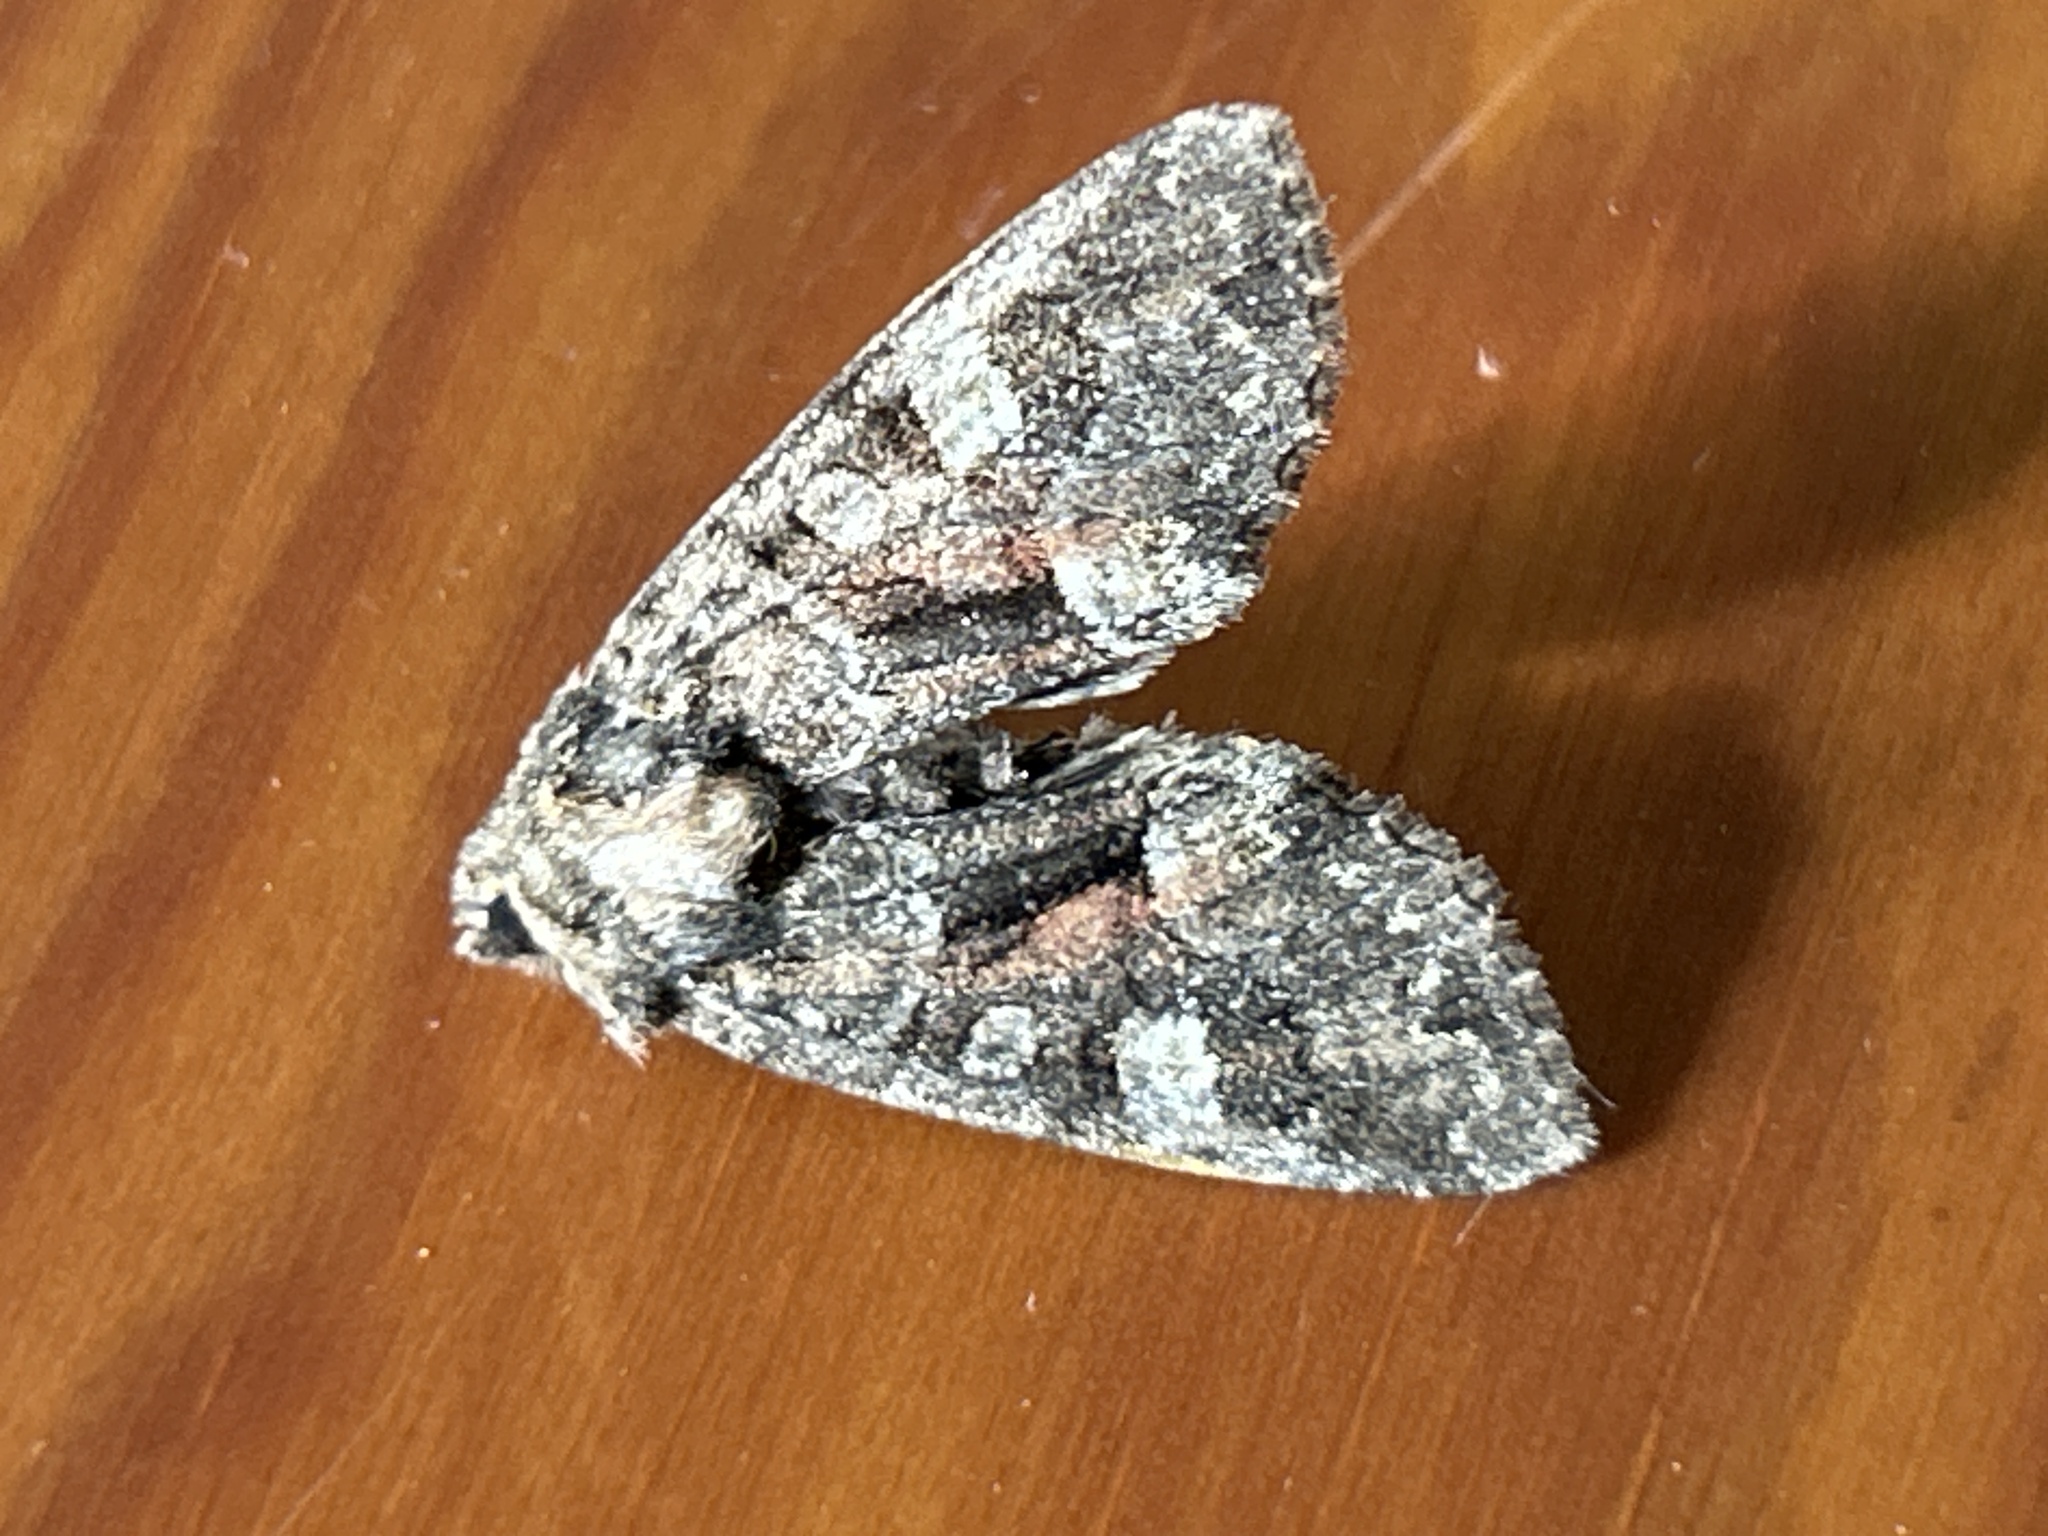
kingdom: Animalia
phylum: Arthropoda
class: Insecta
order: Lepidoptera
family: Noctuidae
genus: Fishia
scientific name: Fishia illocata
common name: Wandering brocade moth
